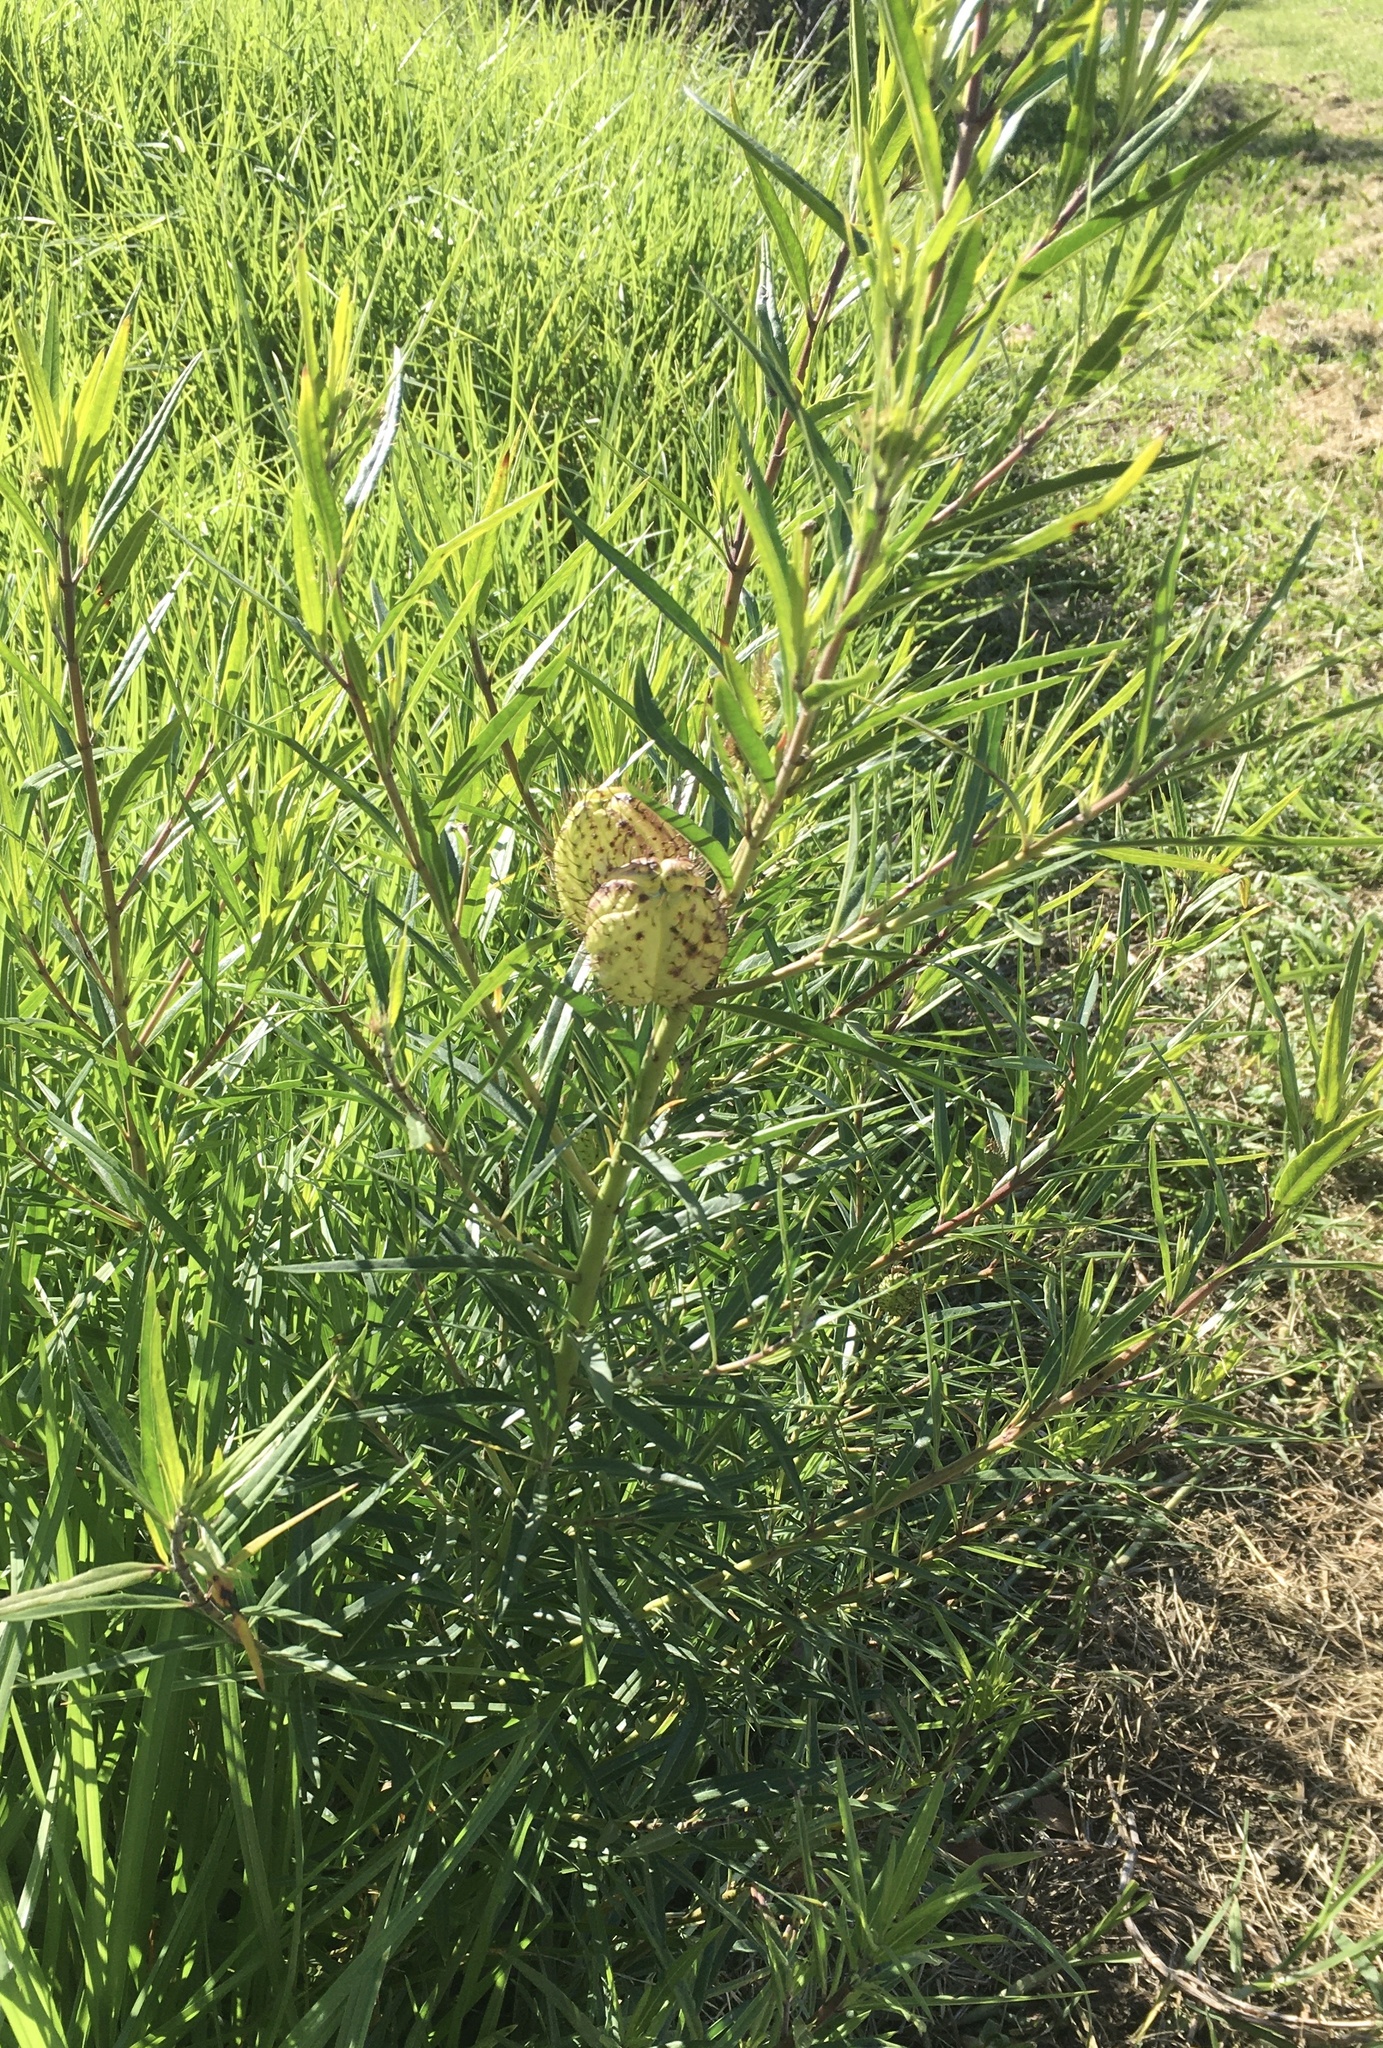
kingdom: Plantae
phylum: Tracheophyta
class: Magnoliopsida
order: Gentianales
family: Apocynaceae
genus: Gomphocarpus
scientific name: Gomphocarpus physocarpus
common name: Balloon cotton bush
